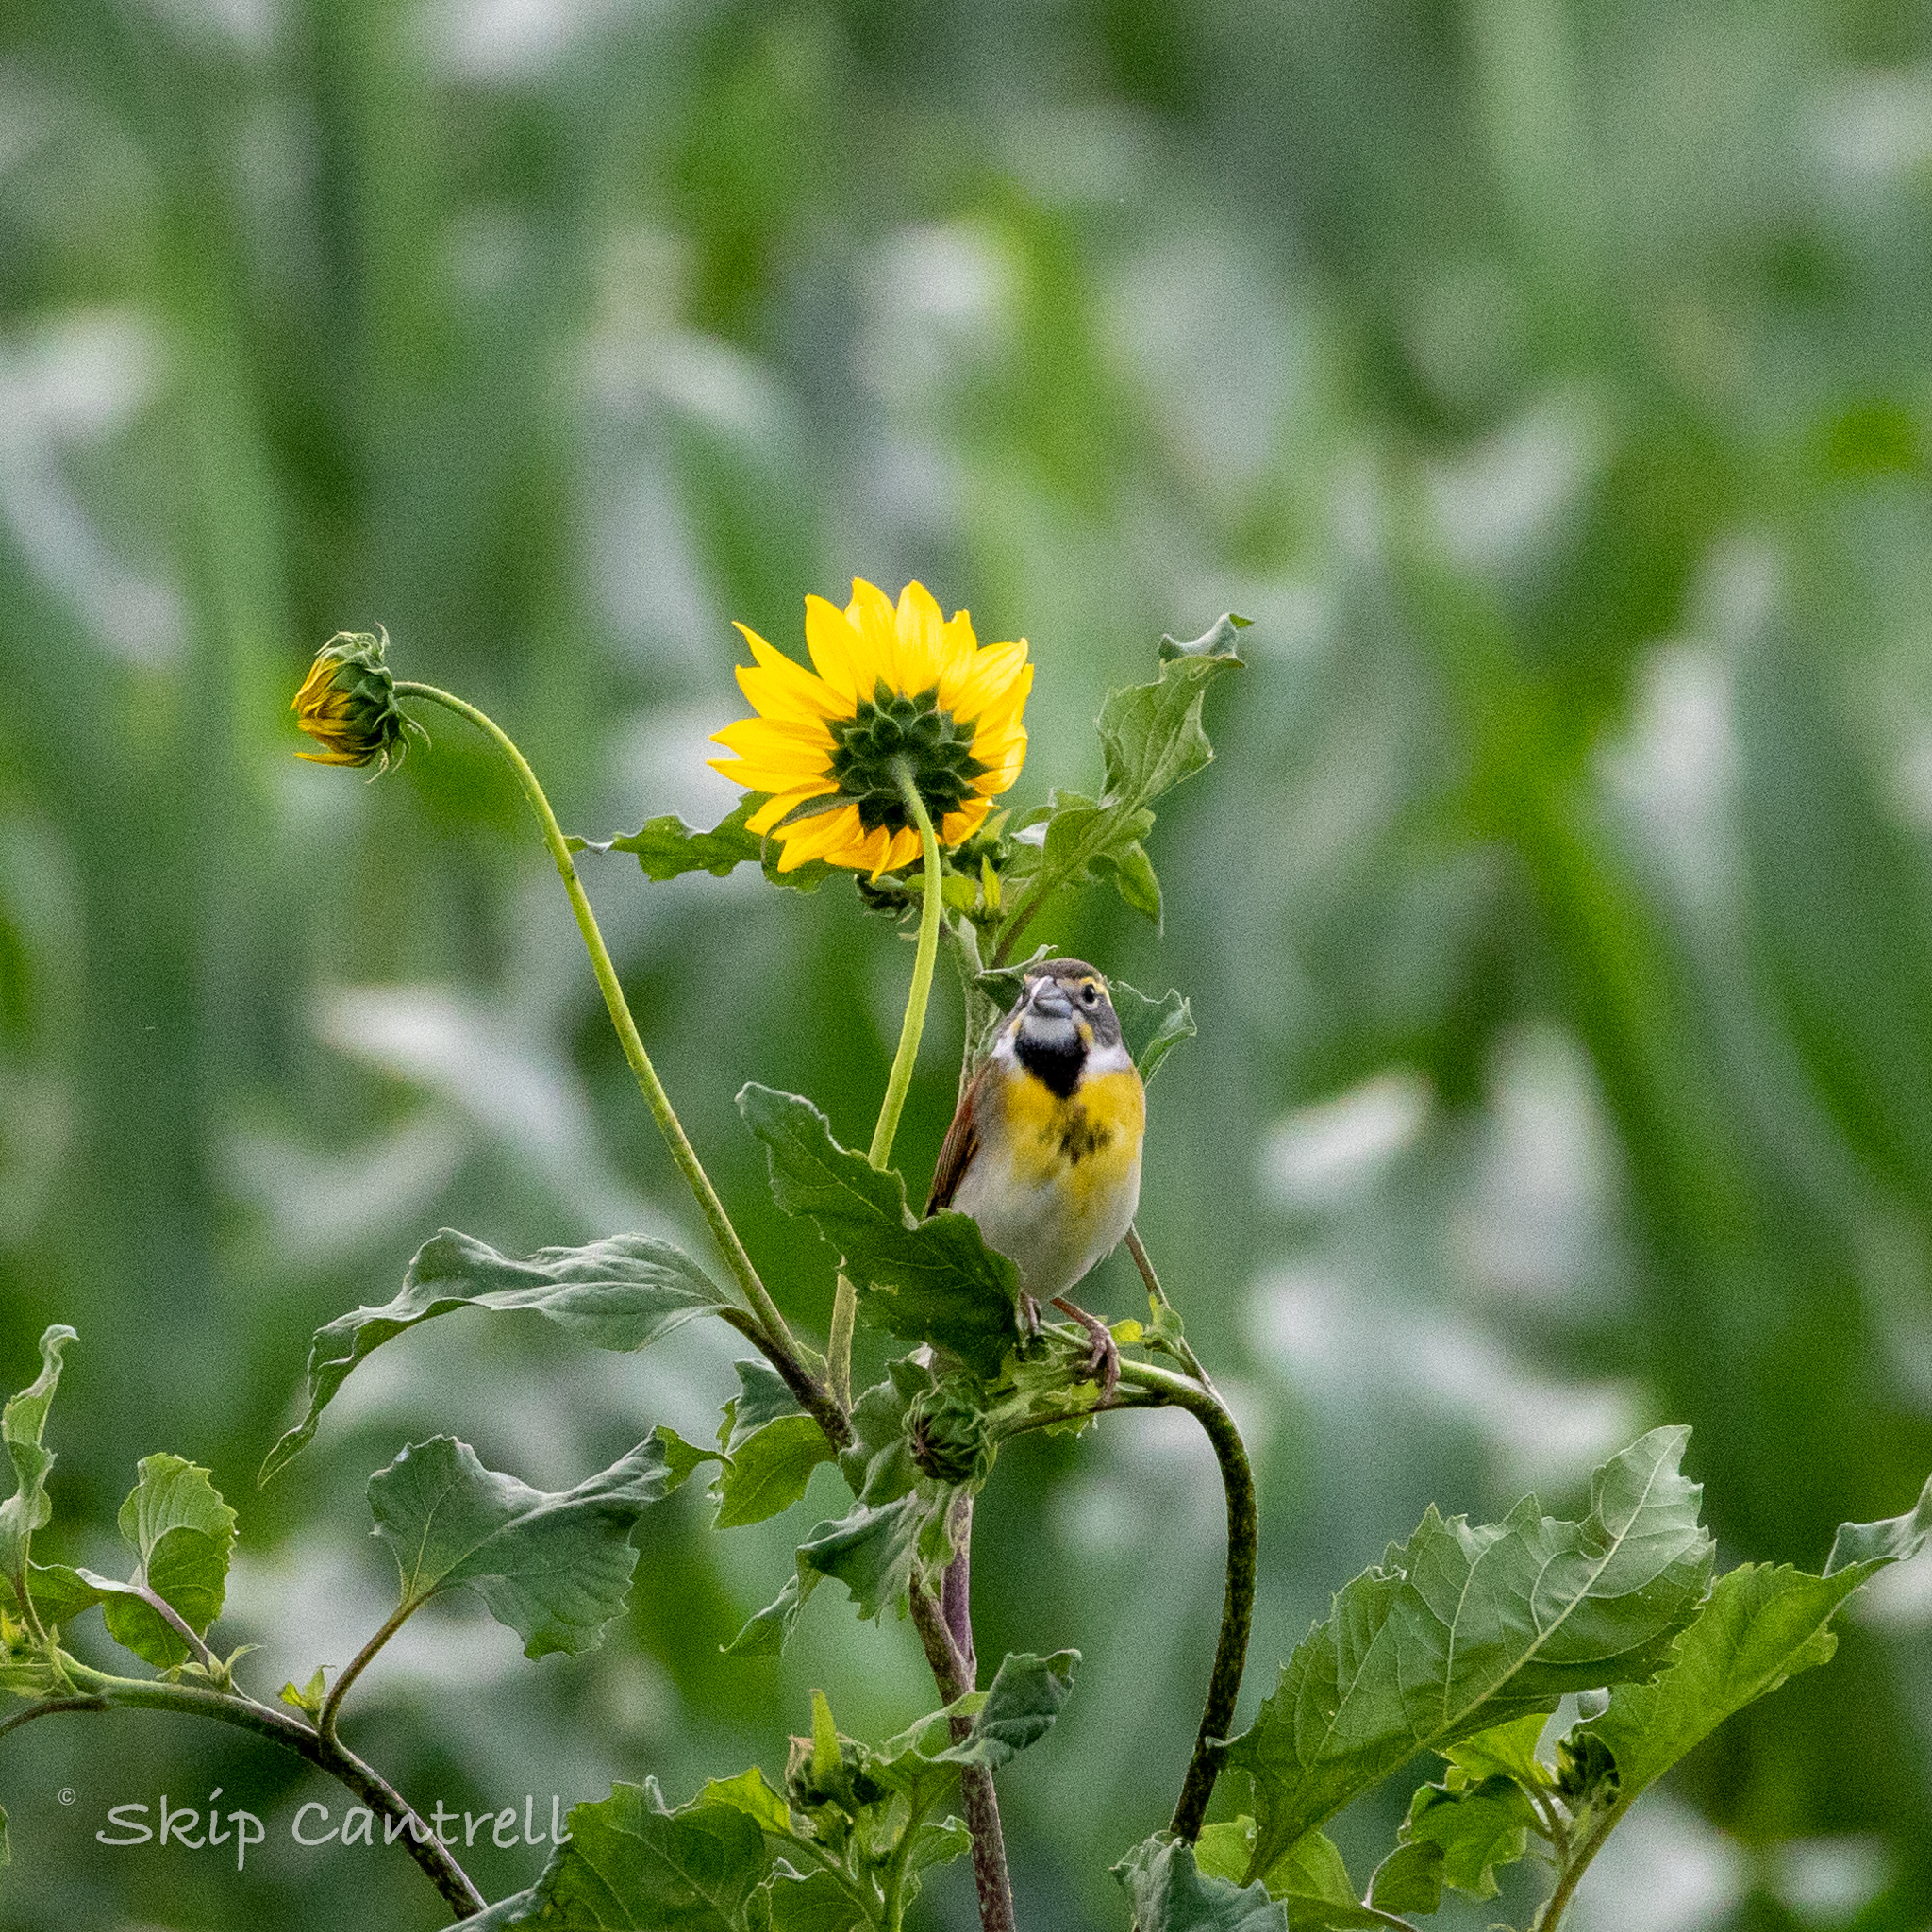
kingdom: Animalia
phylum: Chordata
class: Aves
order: Passeriformes
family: Cardinalidae
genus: Spiza
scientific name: Spiza americana
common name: Dickcissel
